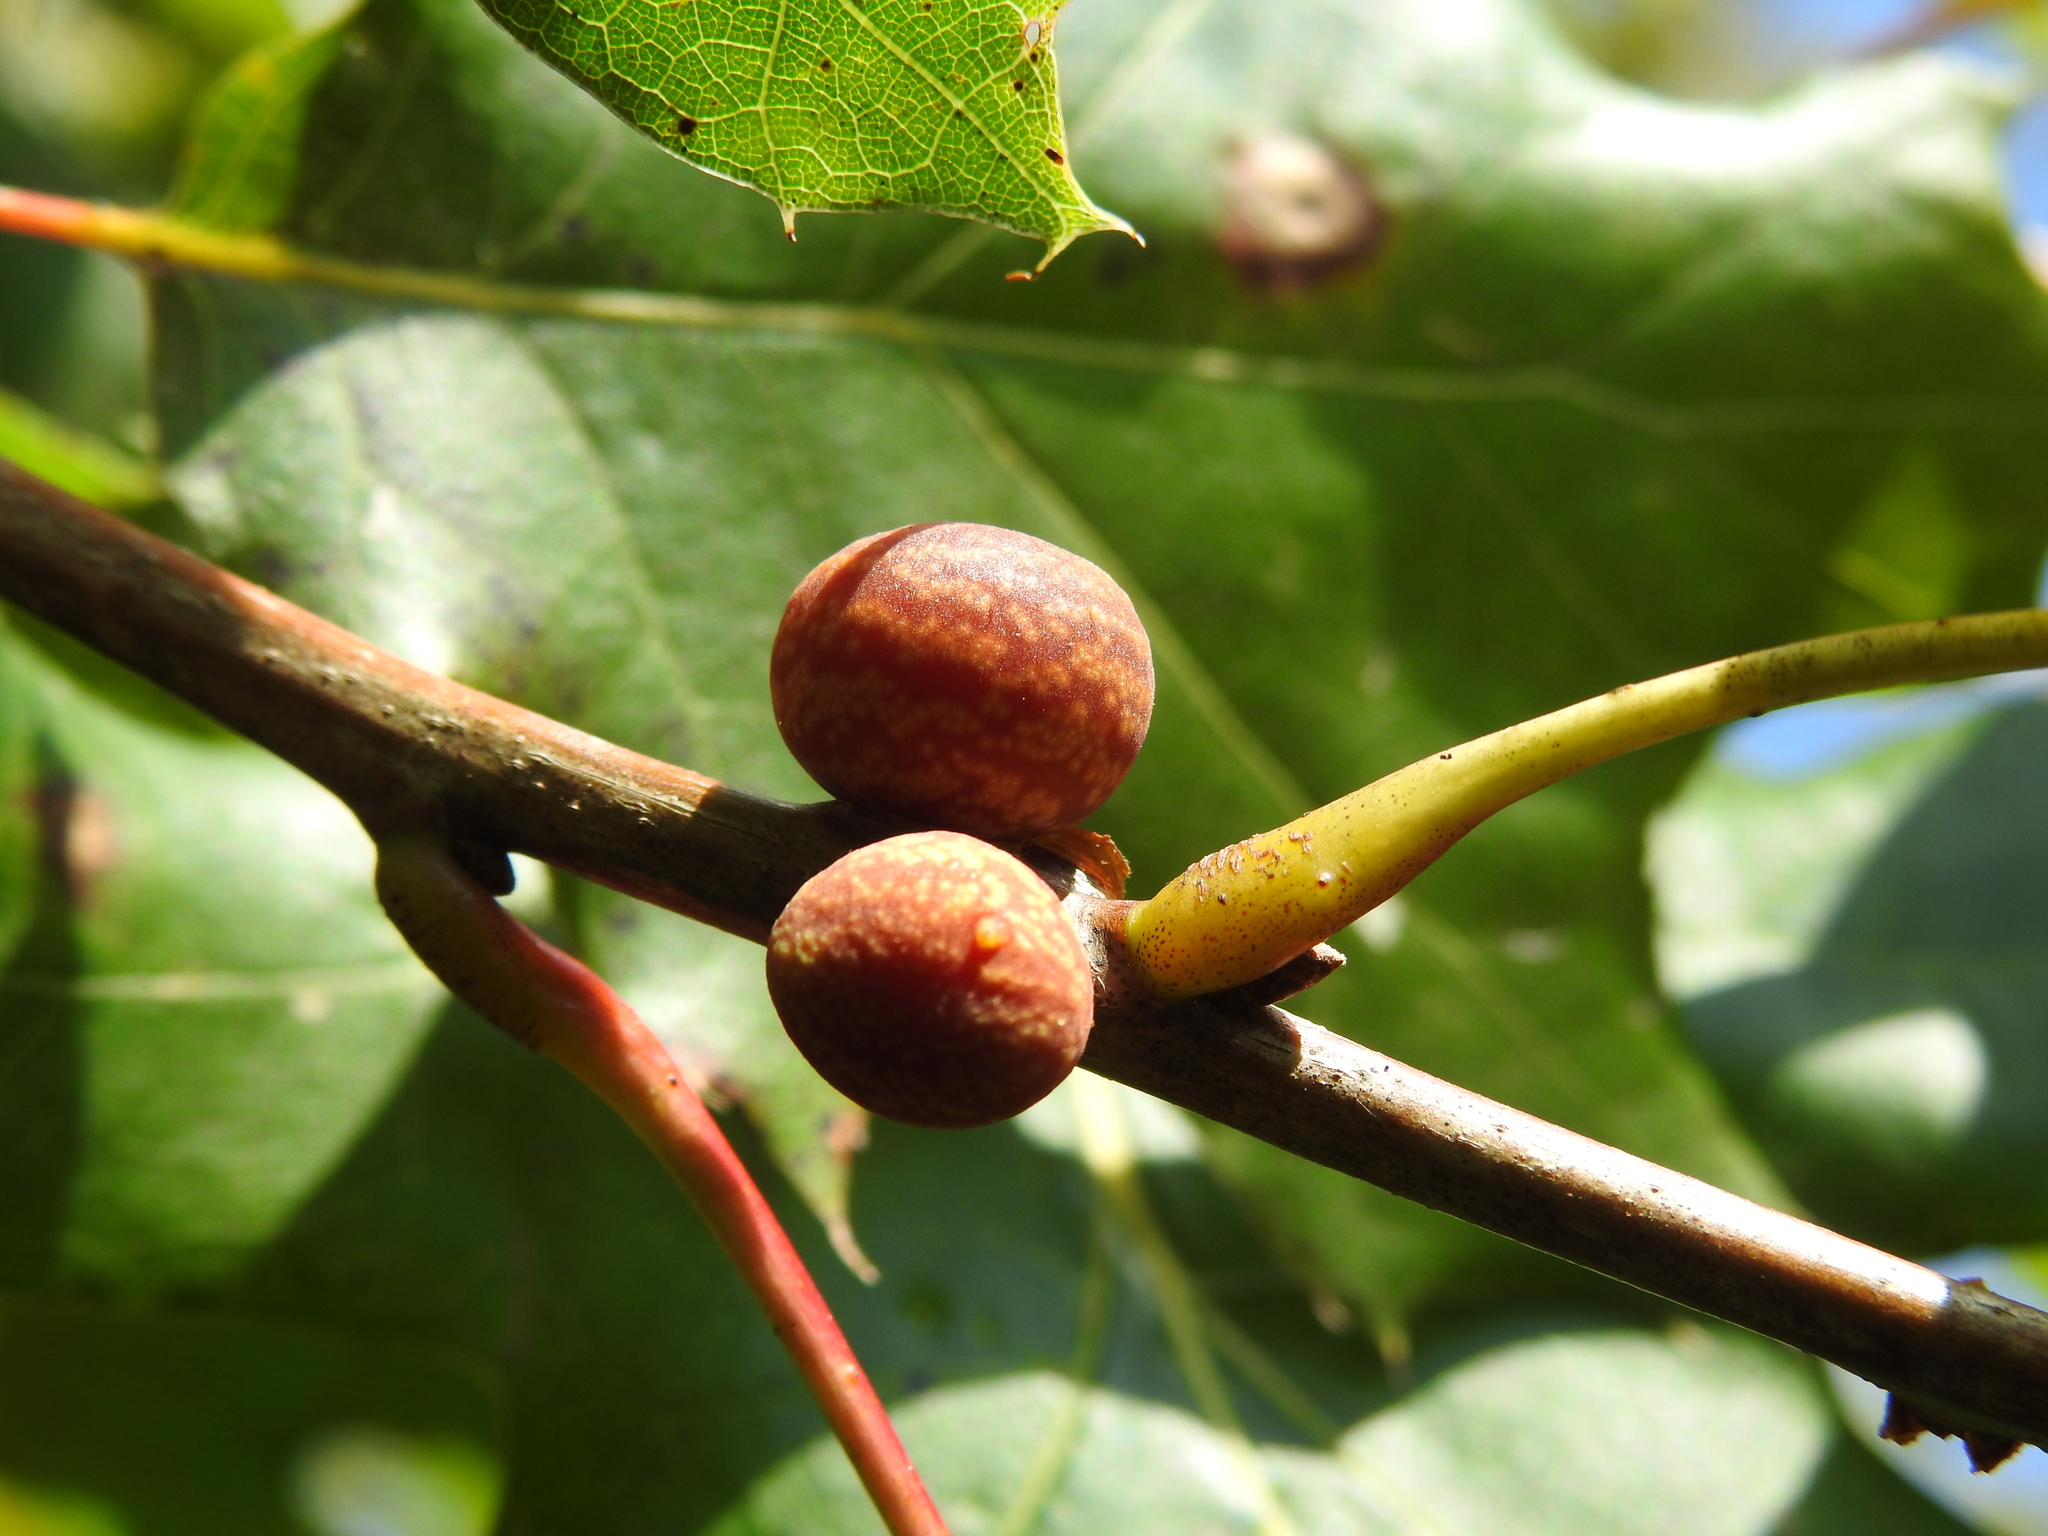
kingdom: Animalia
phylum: Arthropoda
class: Insecta
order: Hymenoptera
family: Cynipidae
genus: Kokkocynips
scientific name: Kokkocynips imbricariae
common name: Banded bullet gall wasp
